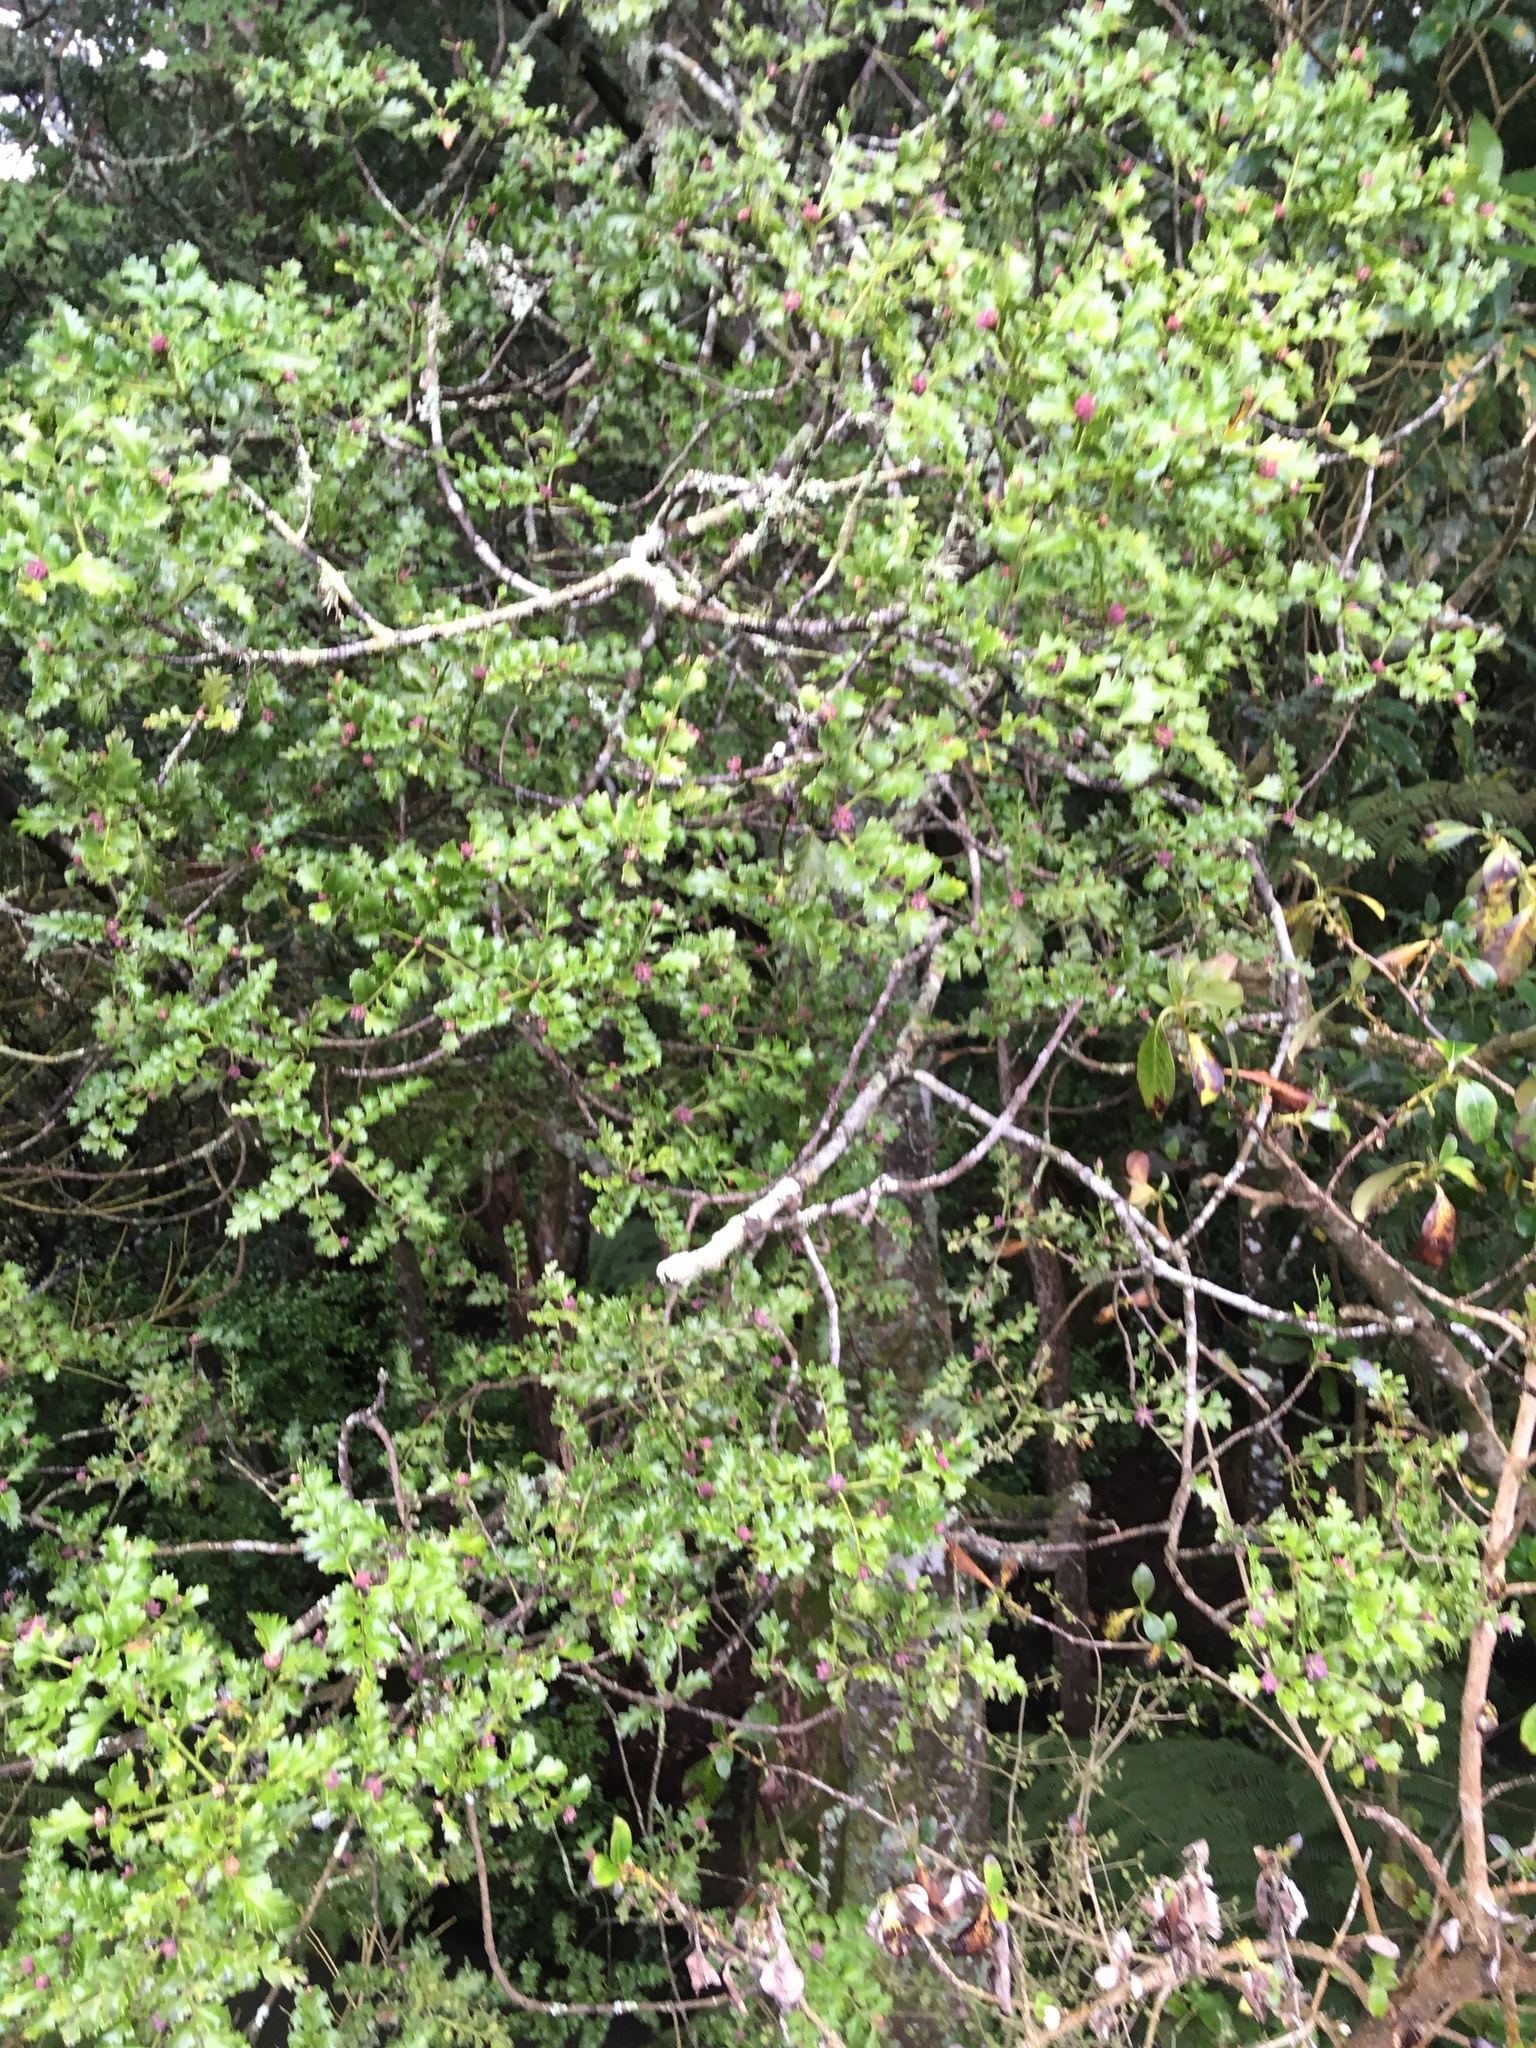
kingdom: Plantae
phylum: Tracheophyta
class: Pinopsida
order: Pinales
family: Phyllocladaceae
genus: Phyllocladus
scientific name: Phyllocladus trichomanoides
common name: Celery pine
